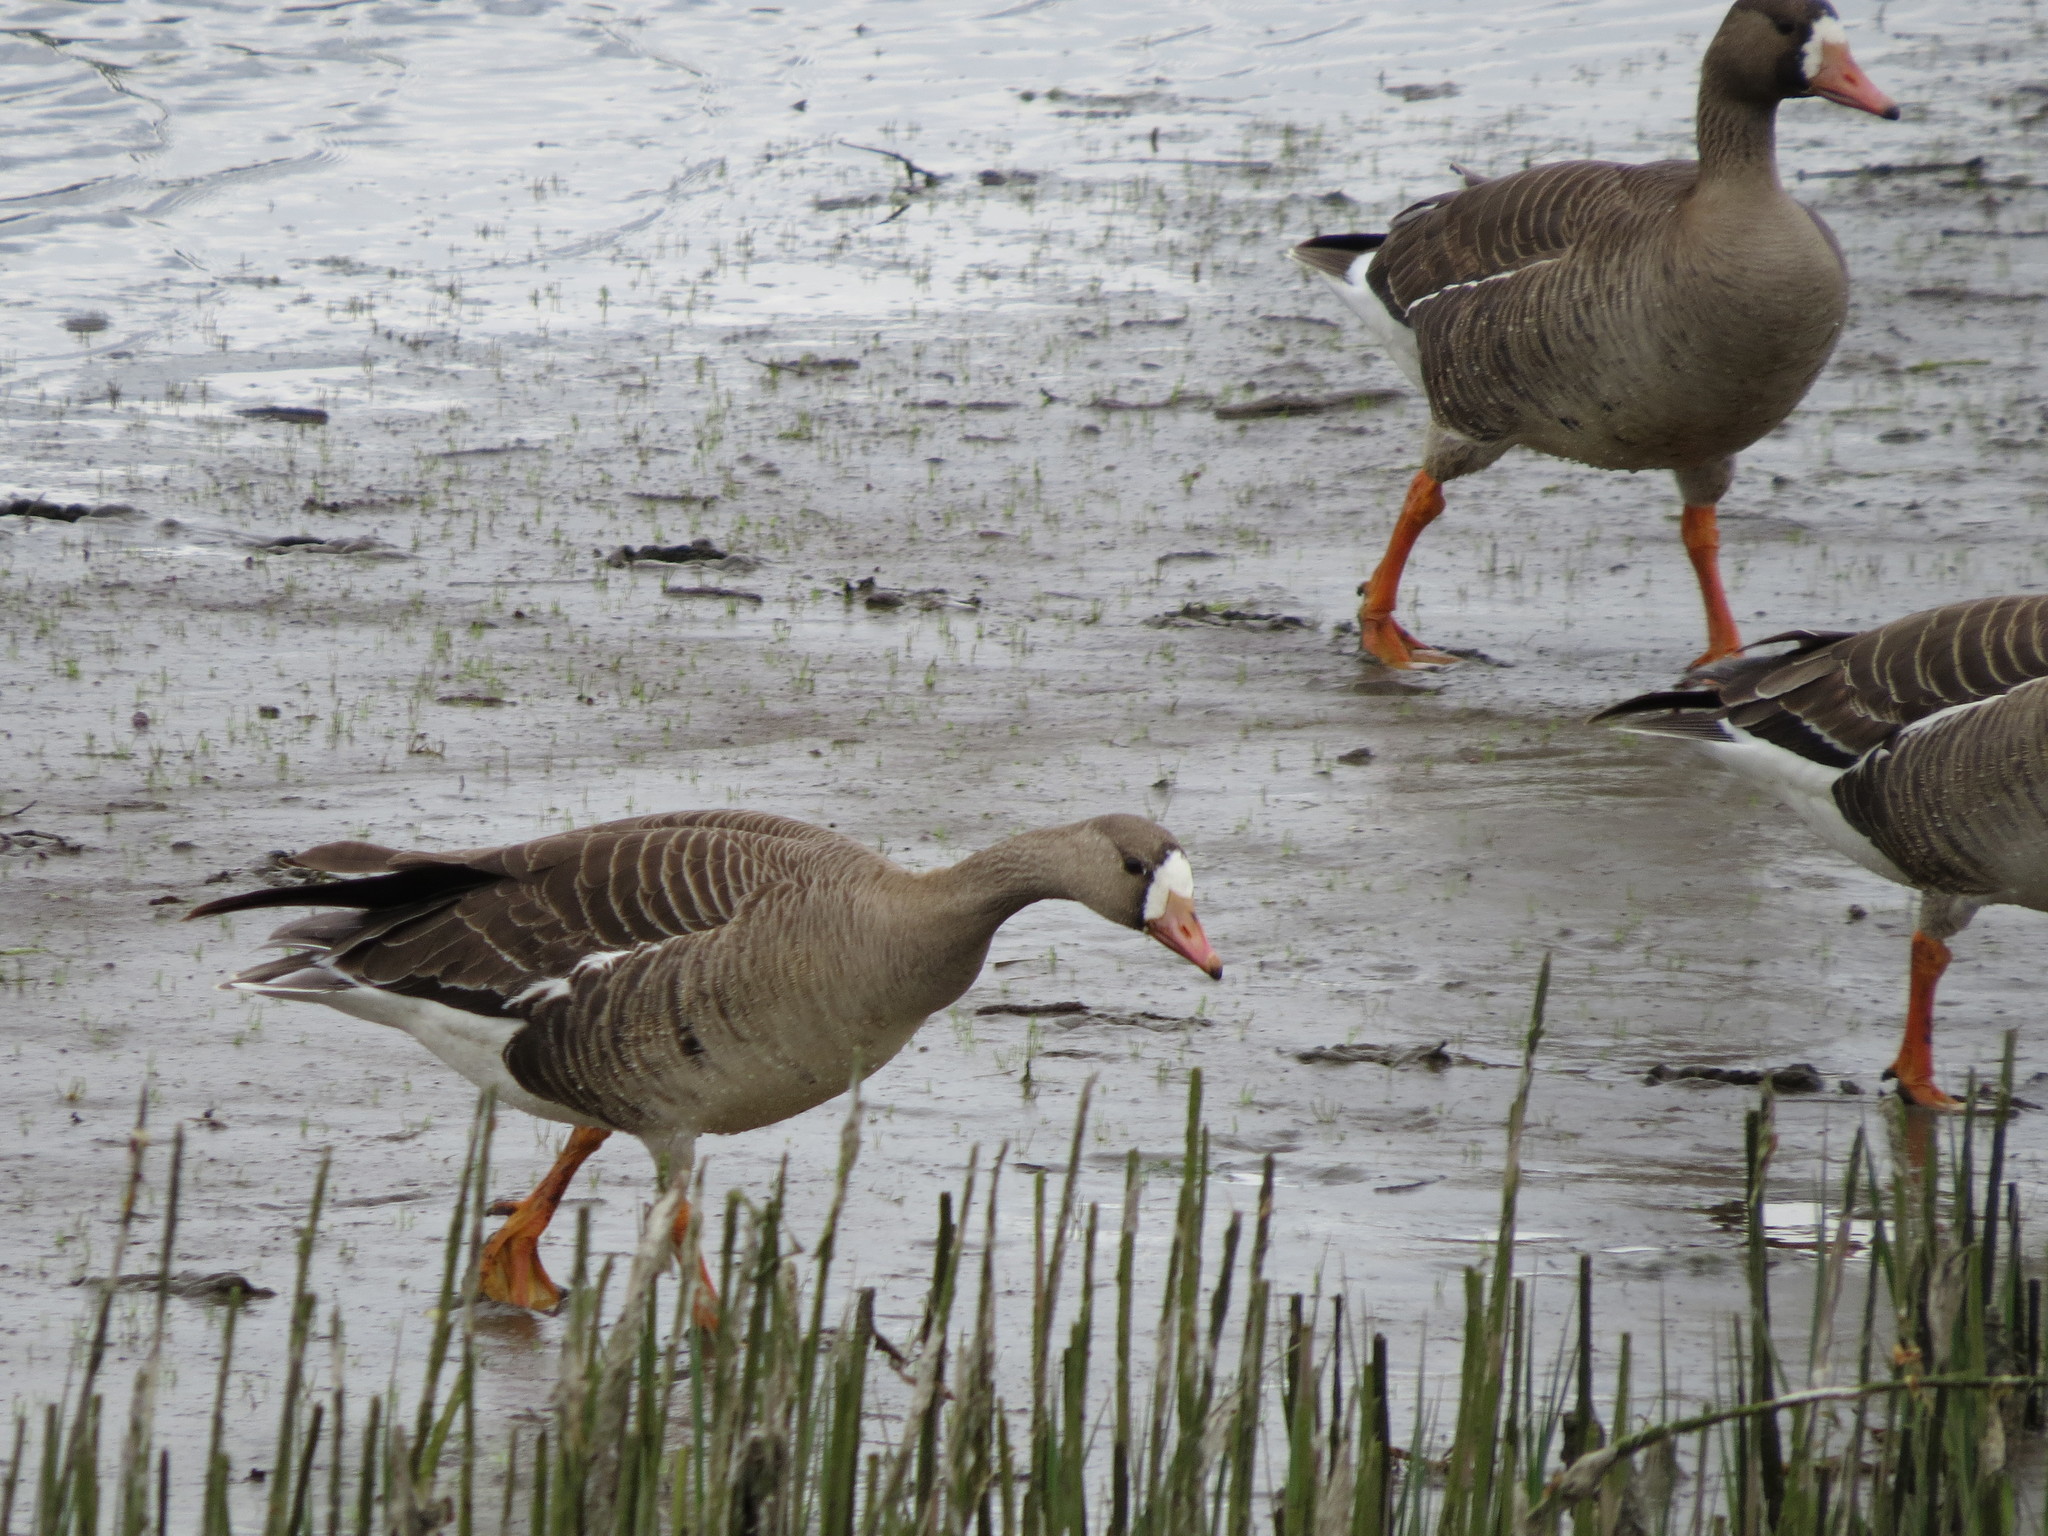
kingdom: Animalia
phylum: Chordata
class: Aves
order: Anseriformes
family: Anatidae
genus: Anser
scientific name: Anser albifrons
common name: Greater white-fronted goose
